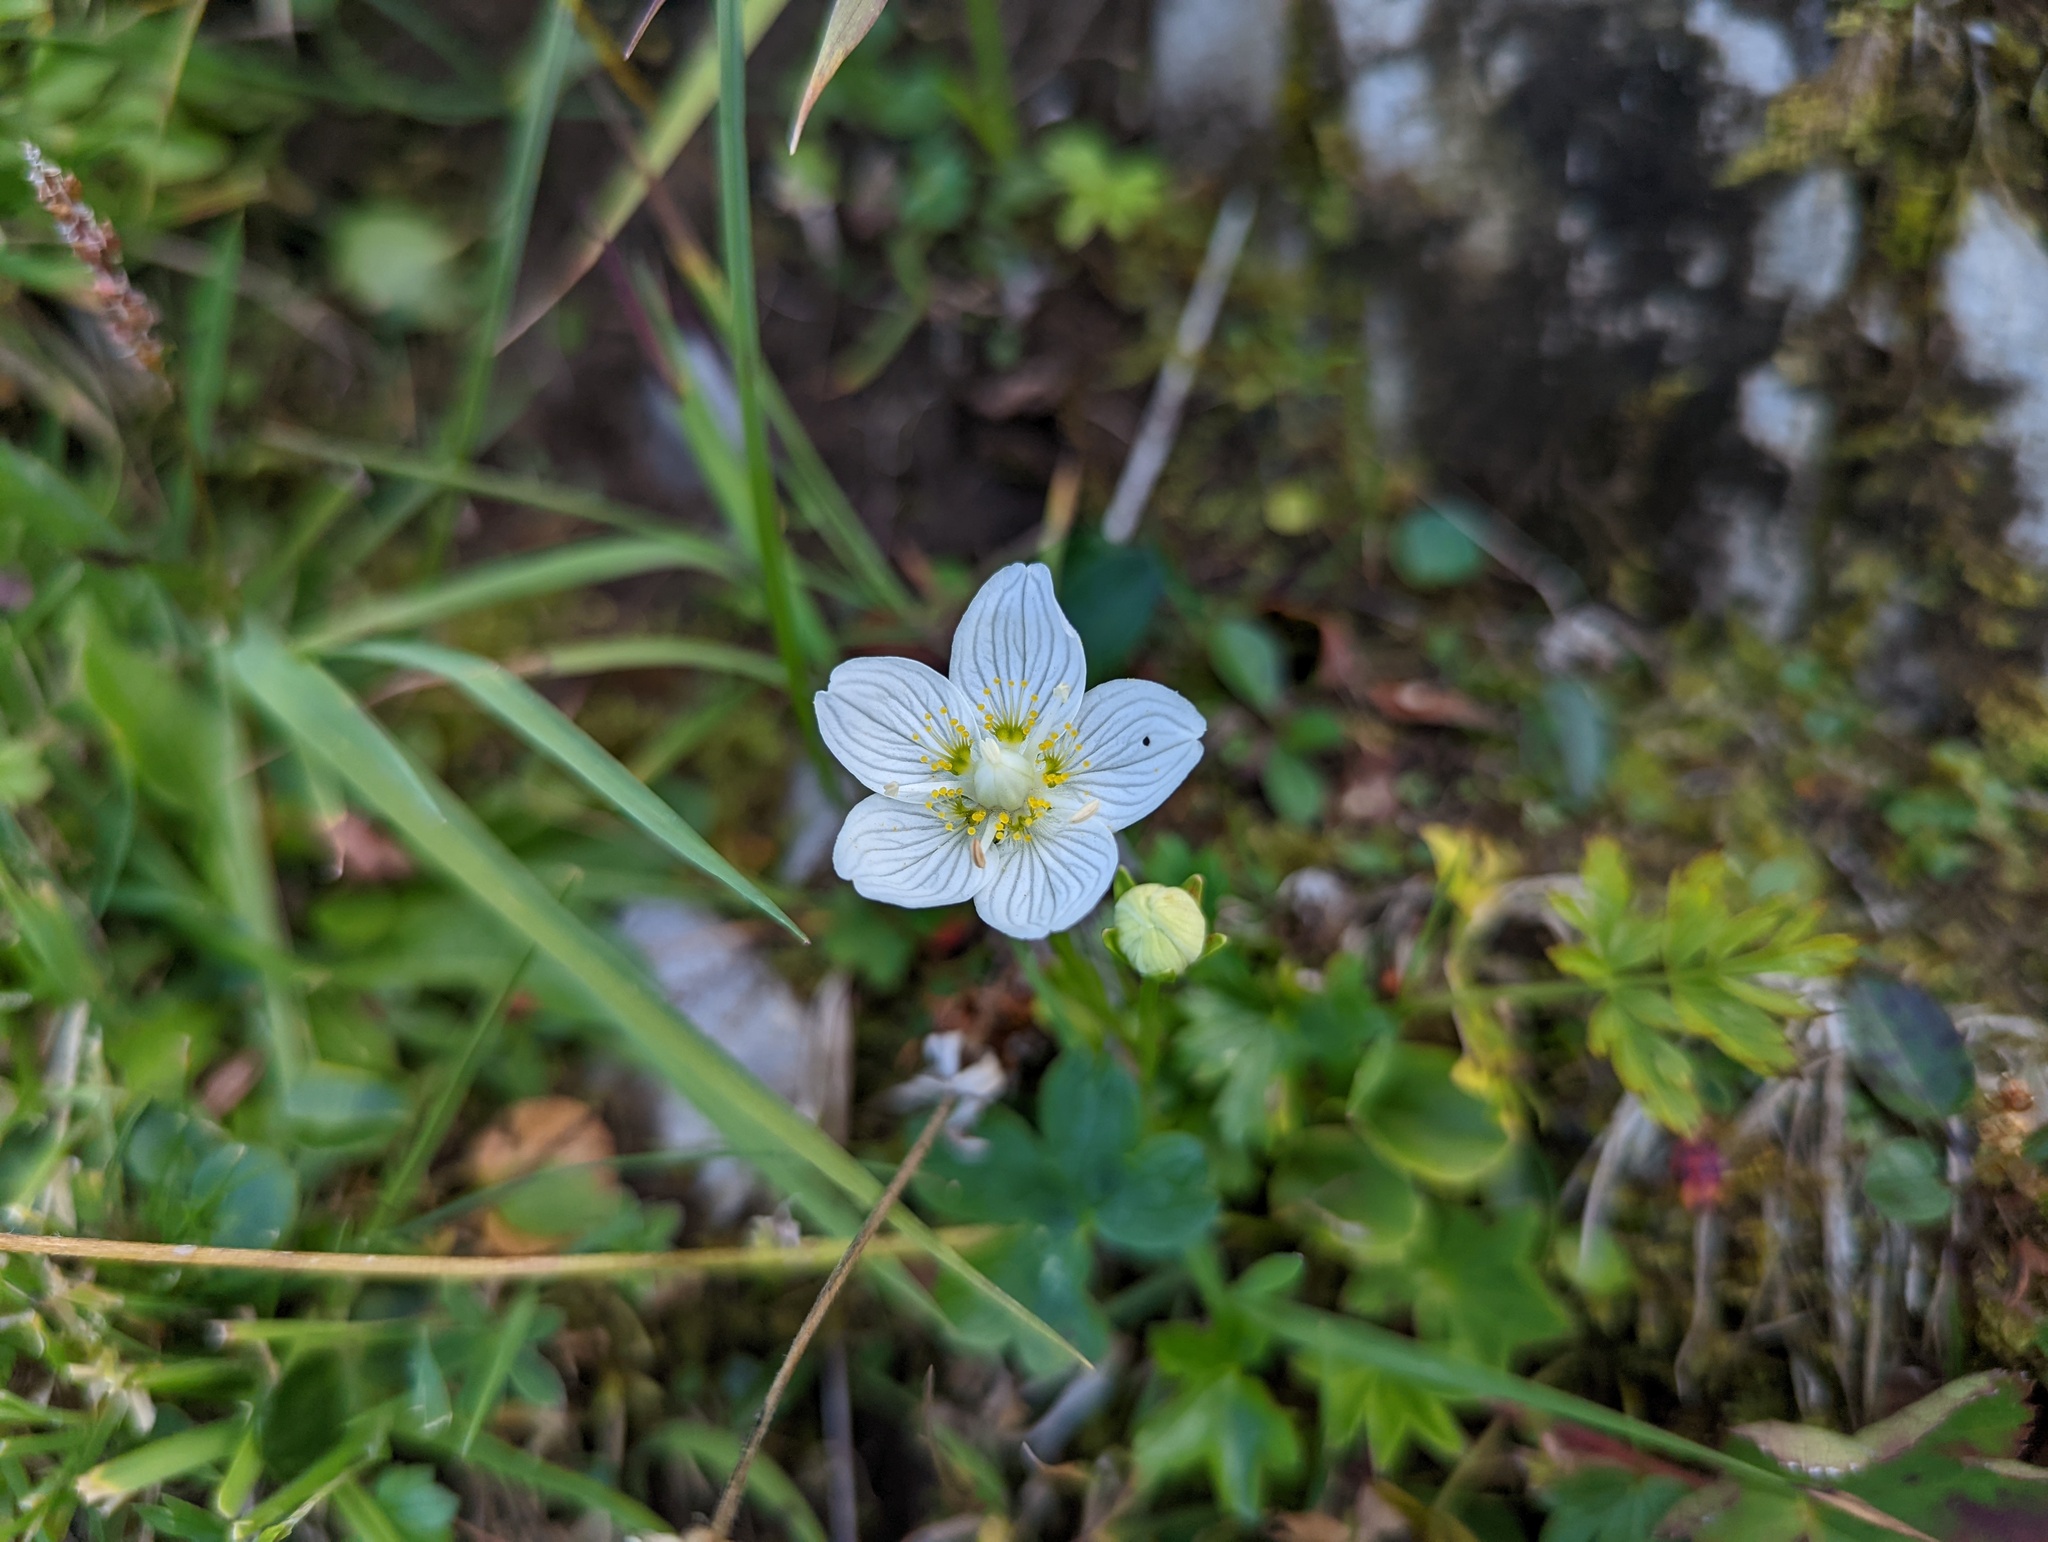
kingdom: Plantae
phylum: Tracheophyta
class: Magnoliopsida
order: Celastrales
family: Parnassiaceae
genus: Parnassia
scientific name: Parnassia palustris
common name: Grass-of-parnassus
